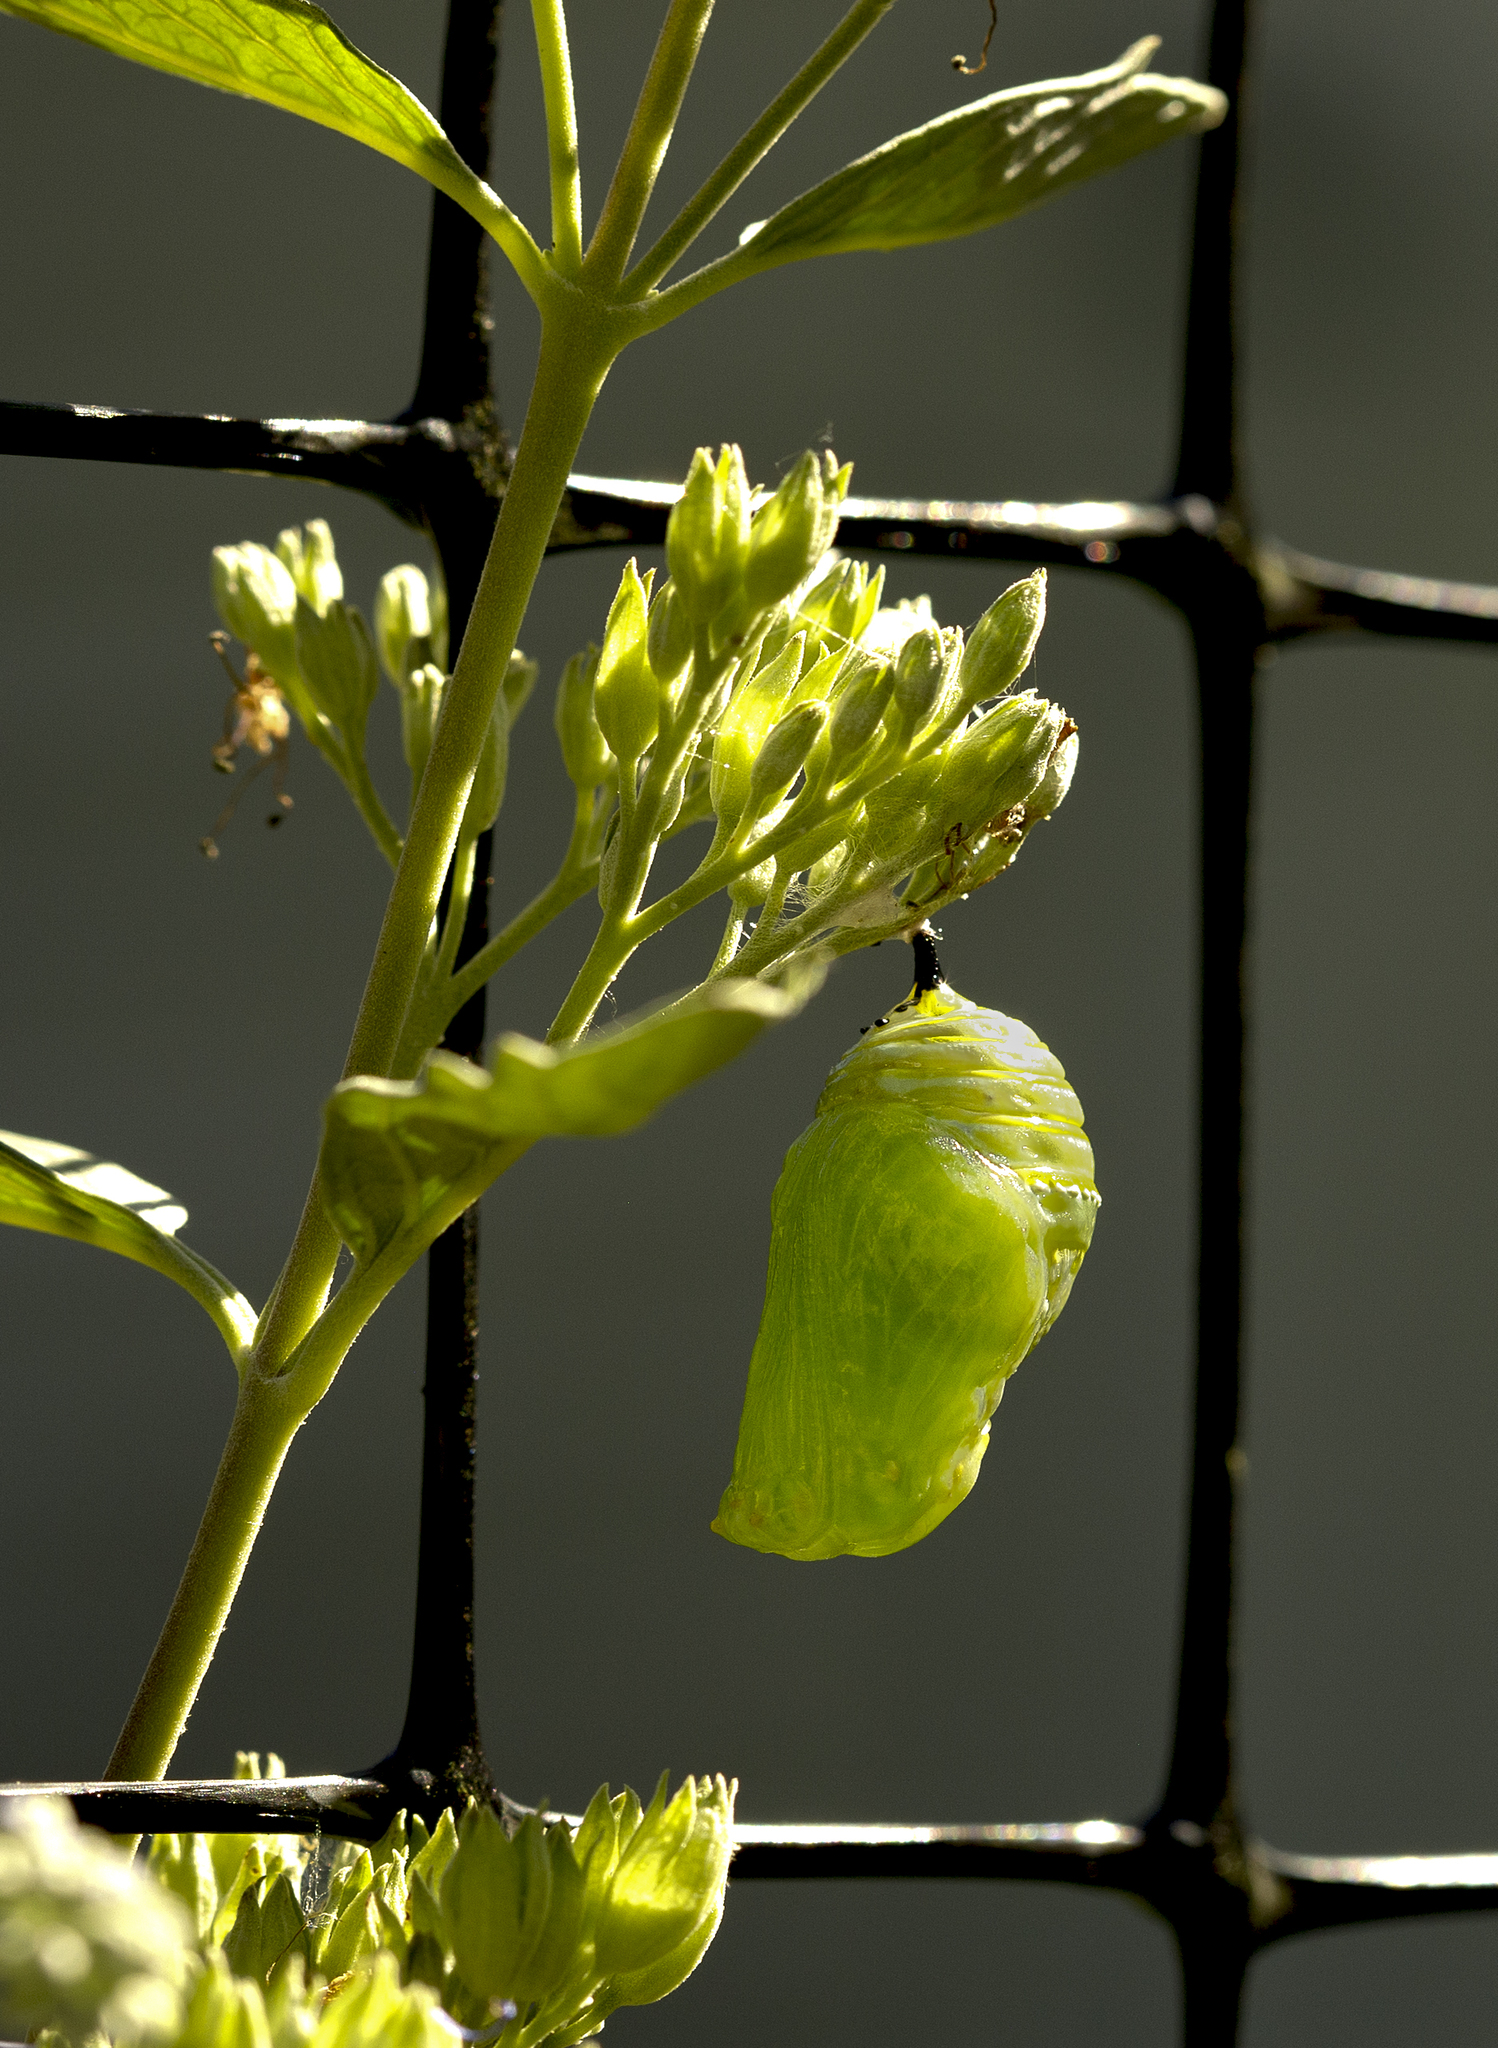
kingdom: Animalia
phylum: Arthropoda
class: Insecta
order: Lepidoptera
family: Nymphalidae
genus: Danaus
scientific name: Danaus plexippus
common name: Monarch
